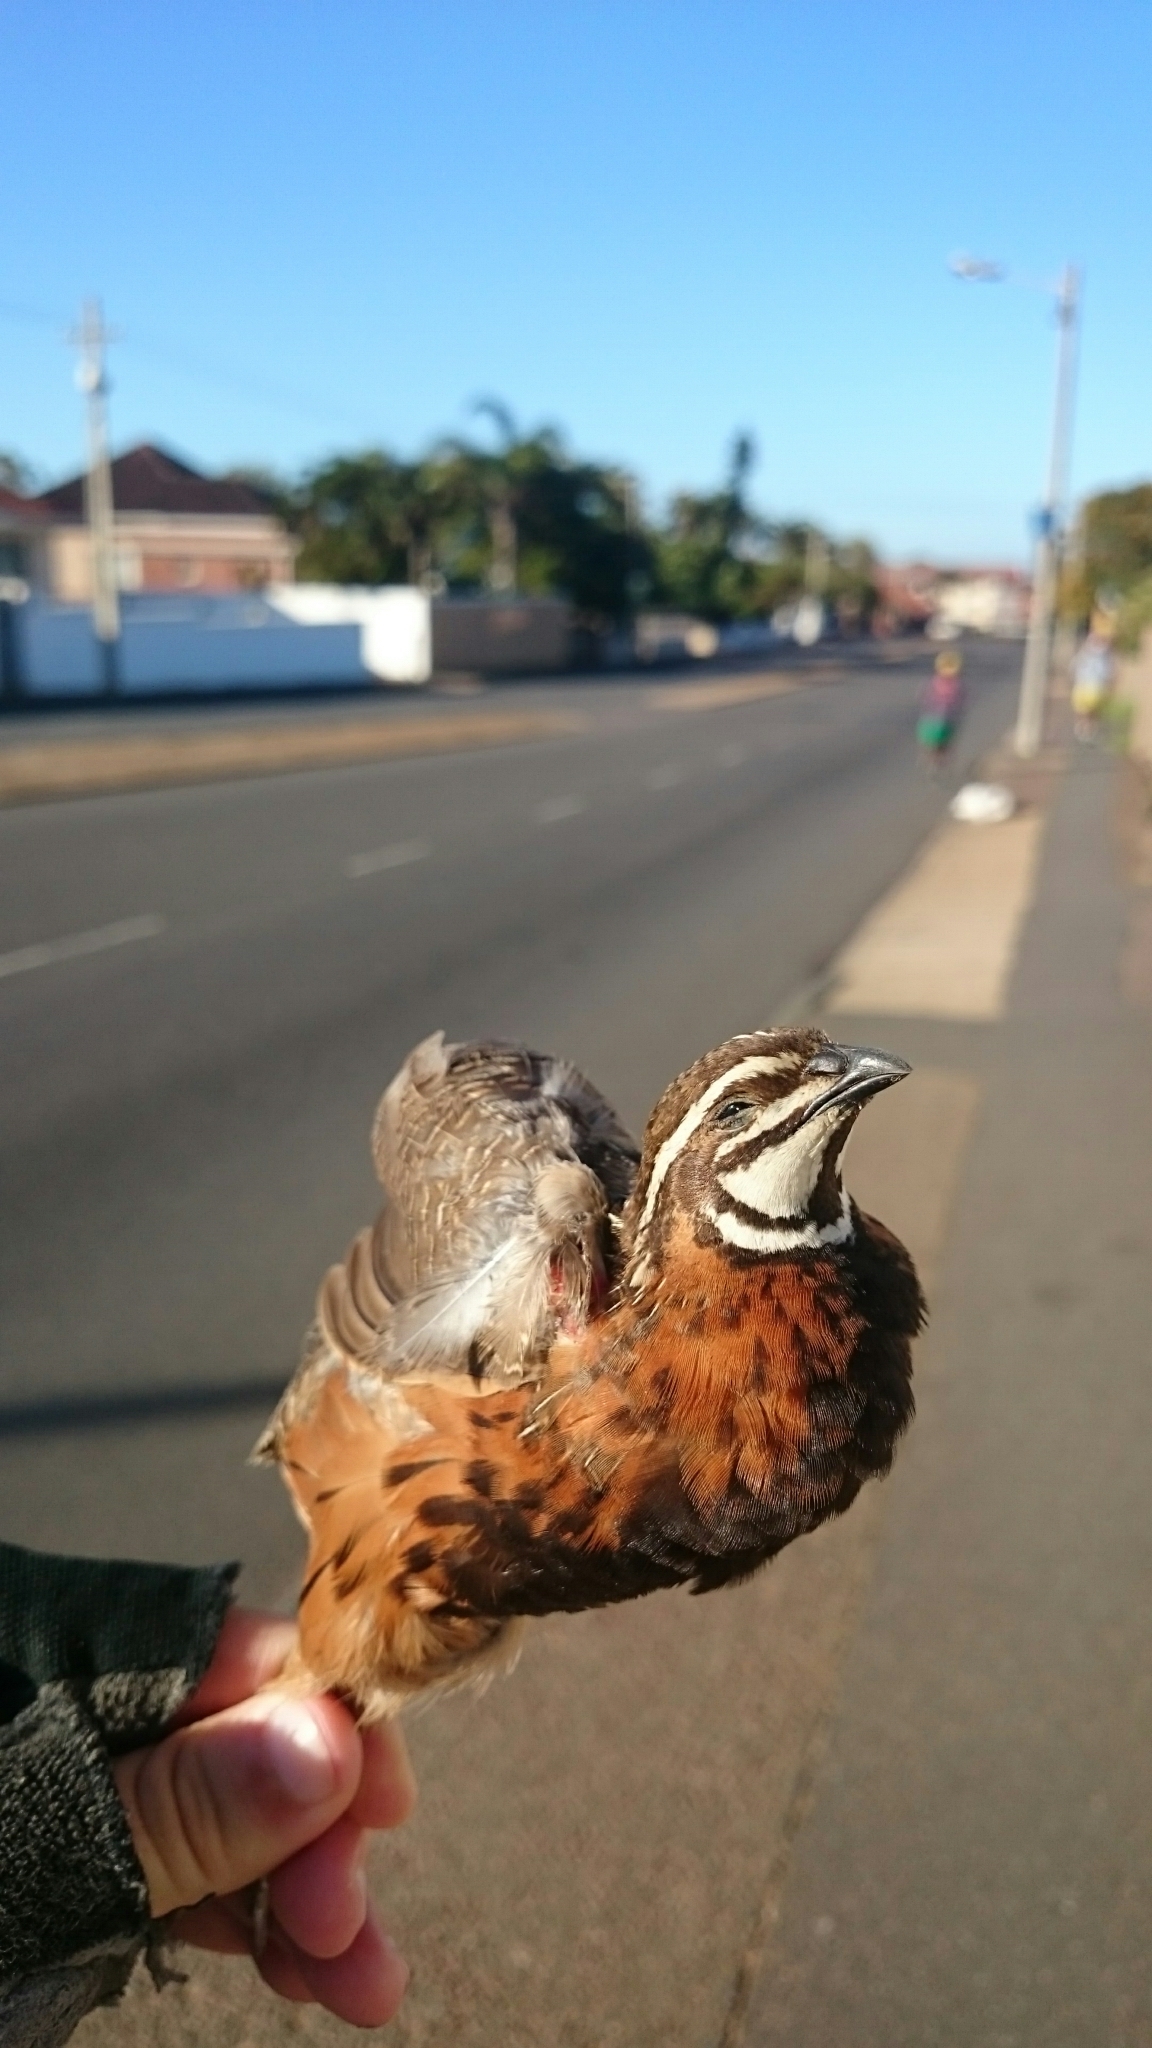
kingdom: Animalia
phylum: Chordata
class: Aves
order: Galliformes
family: Phasianidae
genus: Coturnix
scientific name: Coturnix delegorguei
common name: Harlequin quail
